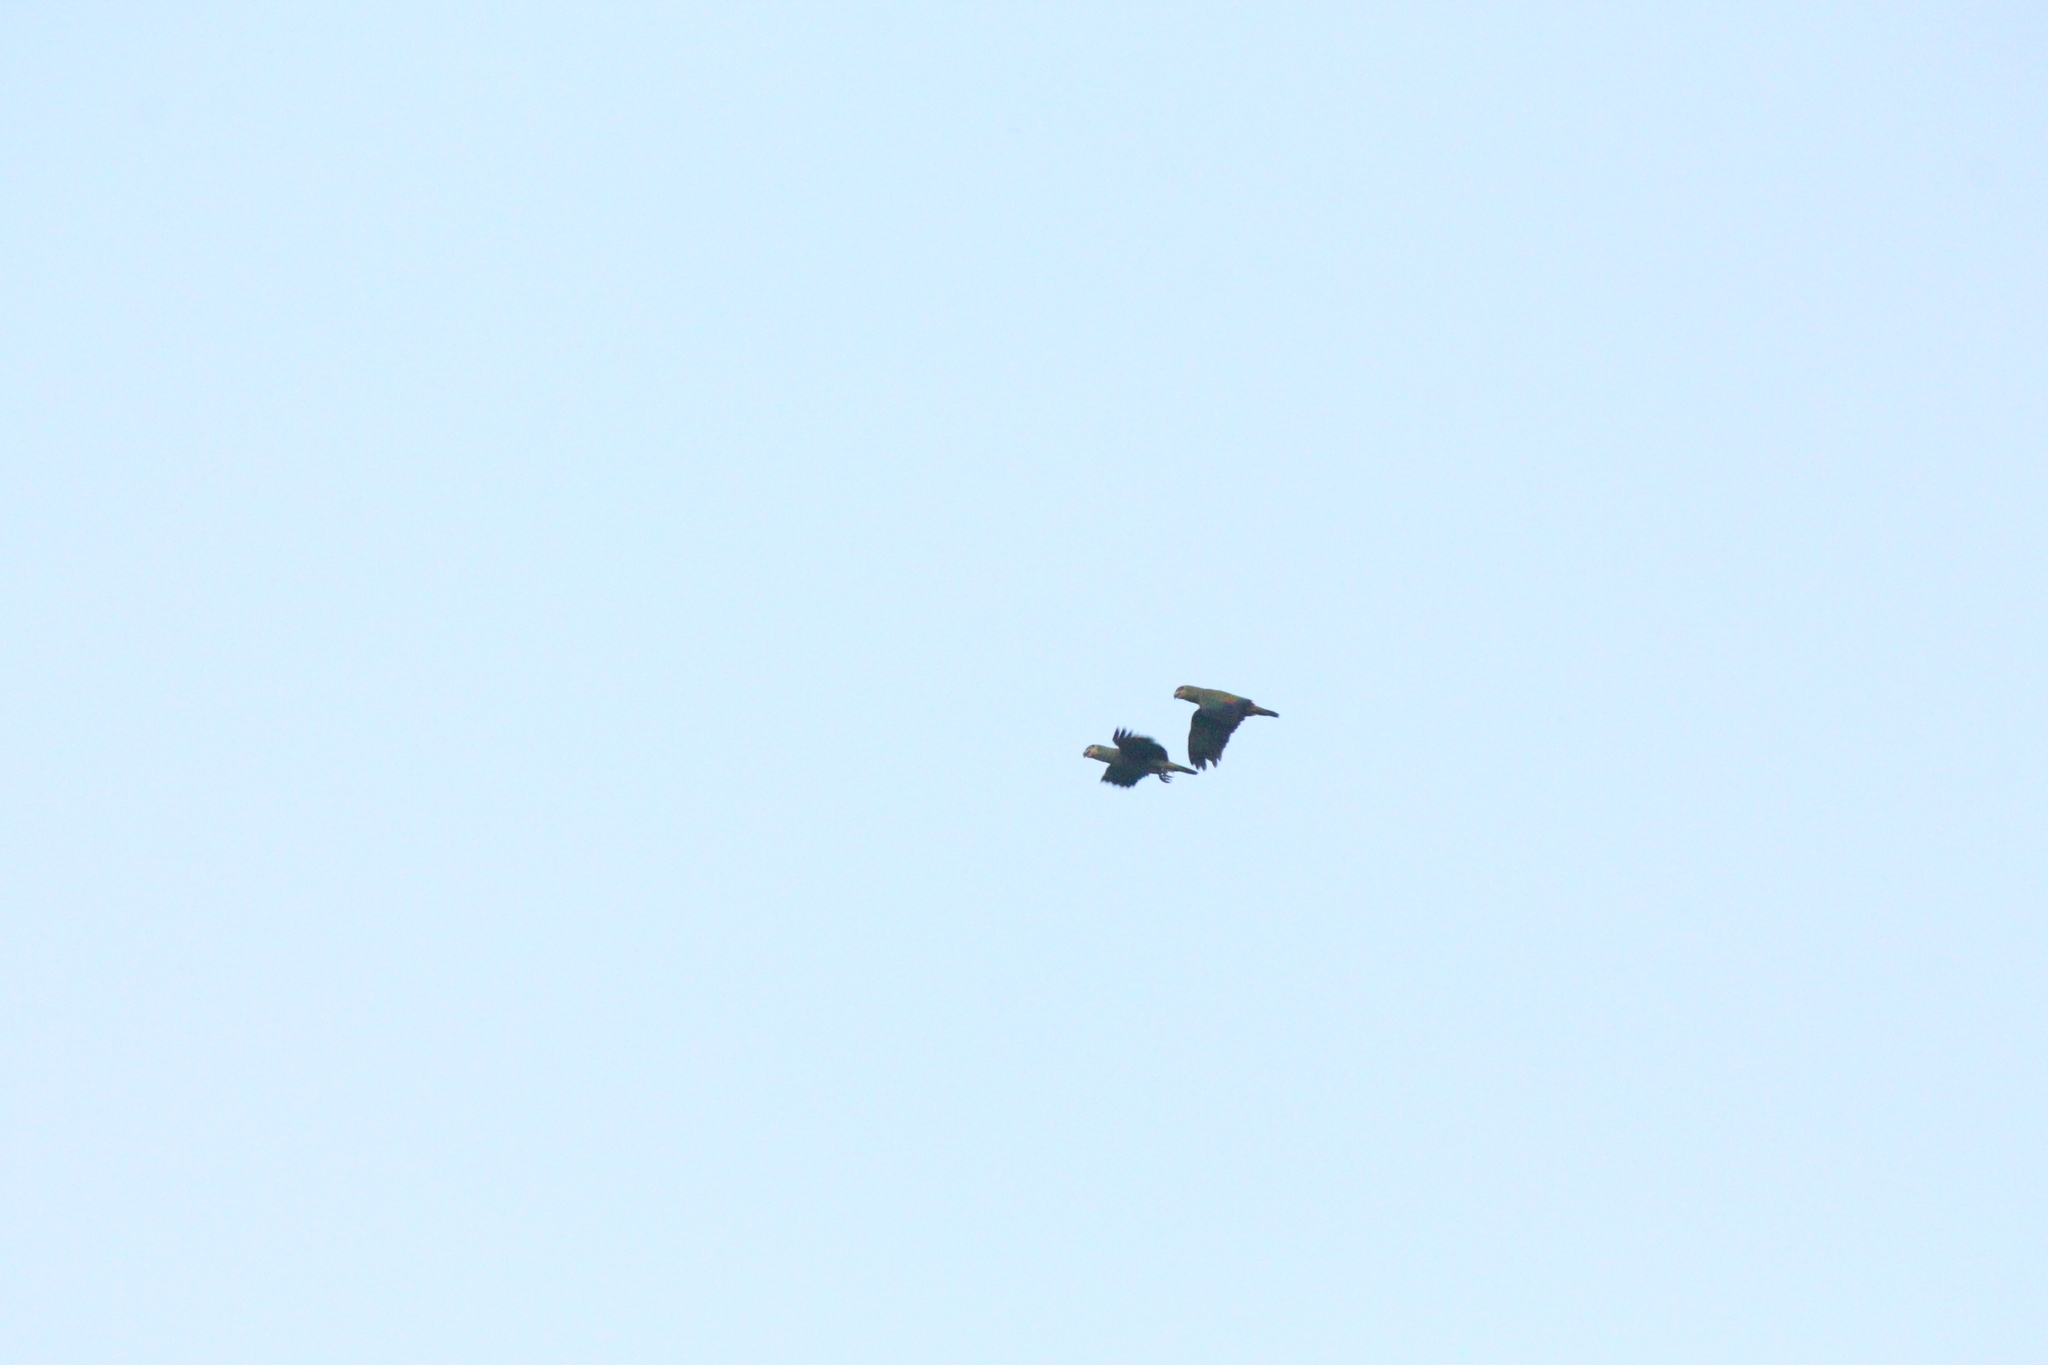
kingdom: Animalia
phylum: Chordata
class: Aves
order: Psittaciformes
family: Psittacidae
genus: Amazona
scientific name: Amazona amazonica
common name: Orange-winged amazon
